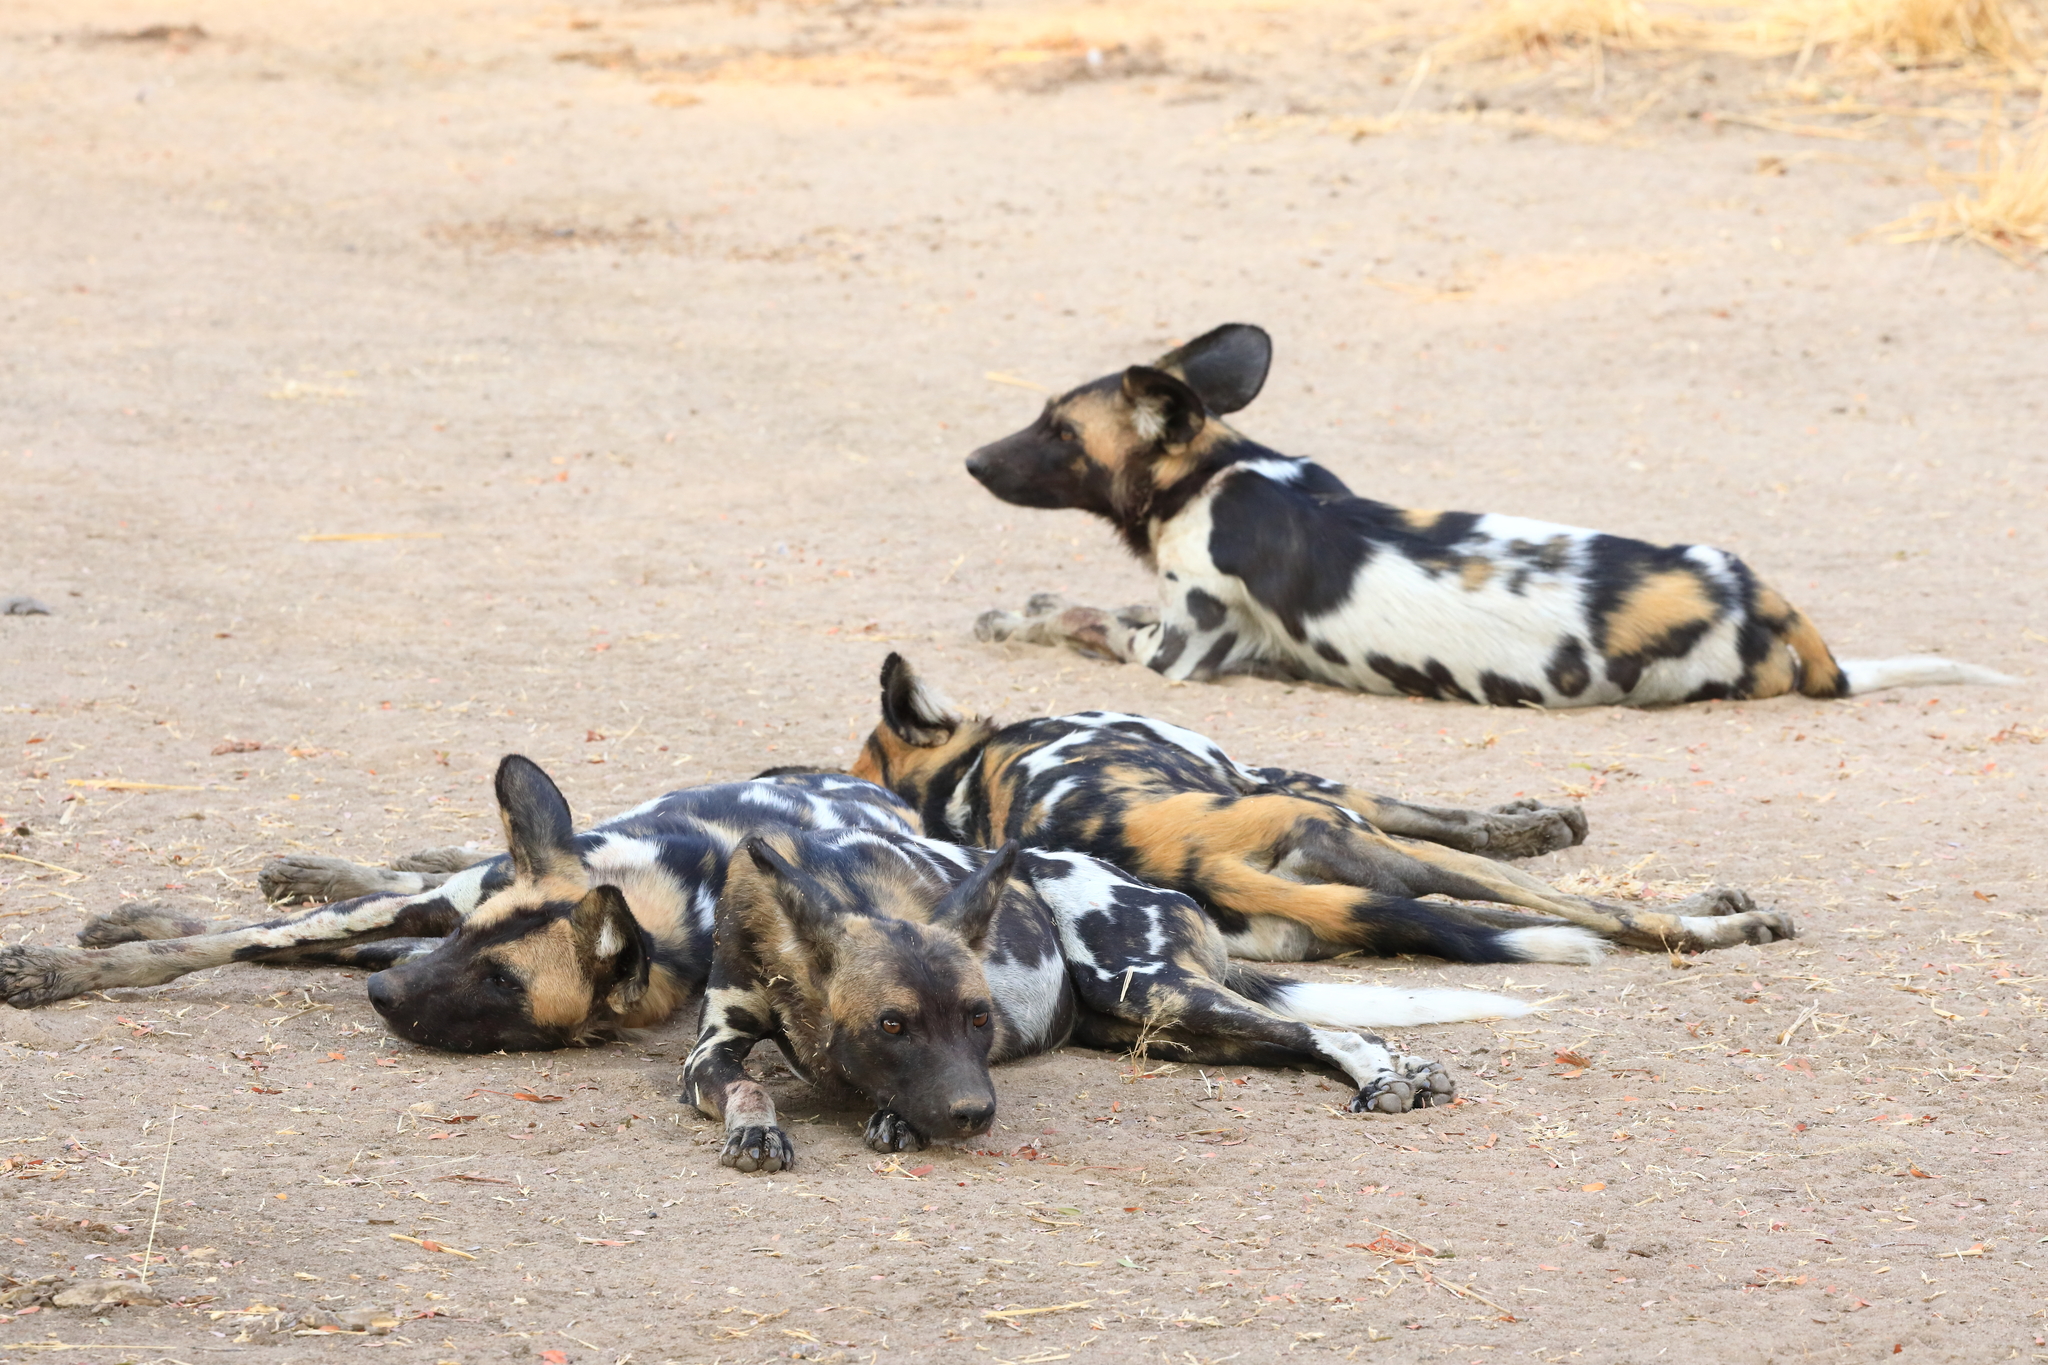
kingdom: Animalia
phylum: Chordata
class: Mammalia
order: Carnivora
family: Canidae
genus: Lycaon
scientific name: Lycaon pictus
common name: African wild dog
